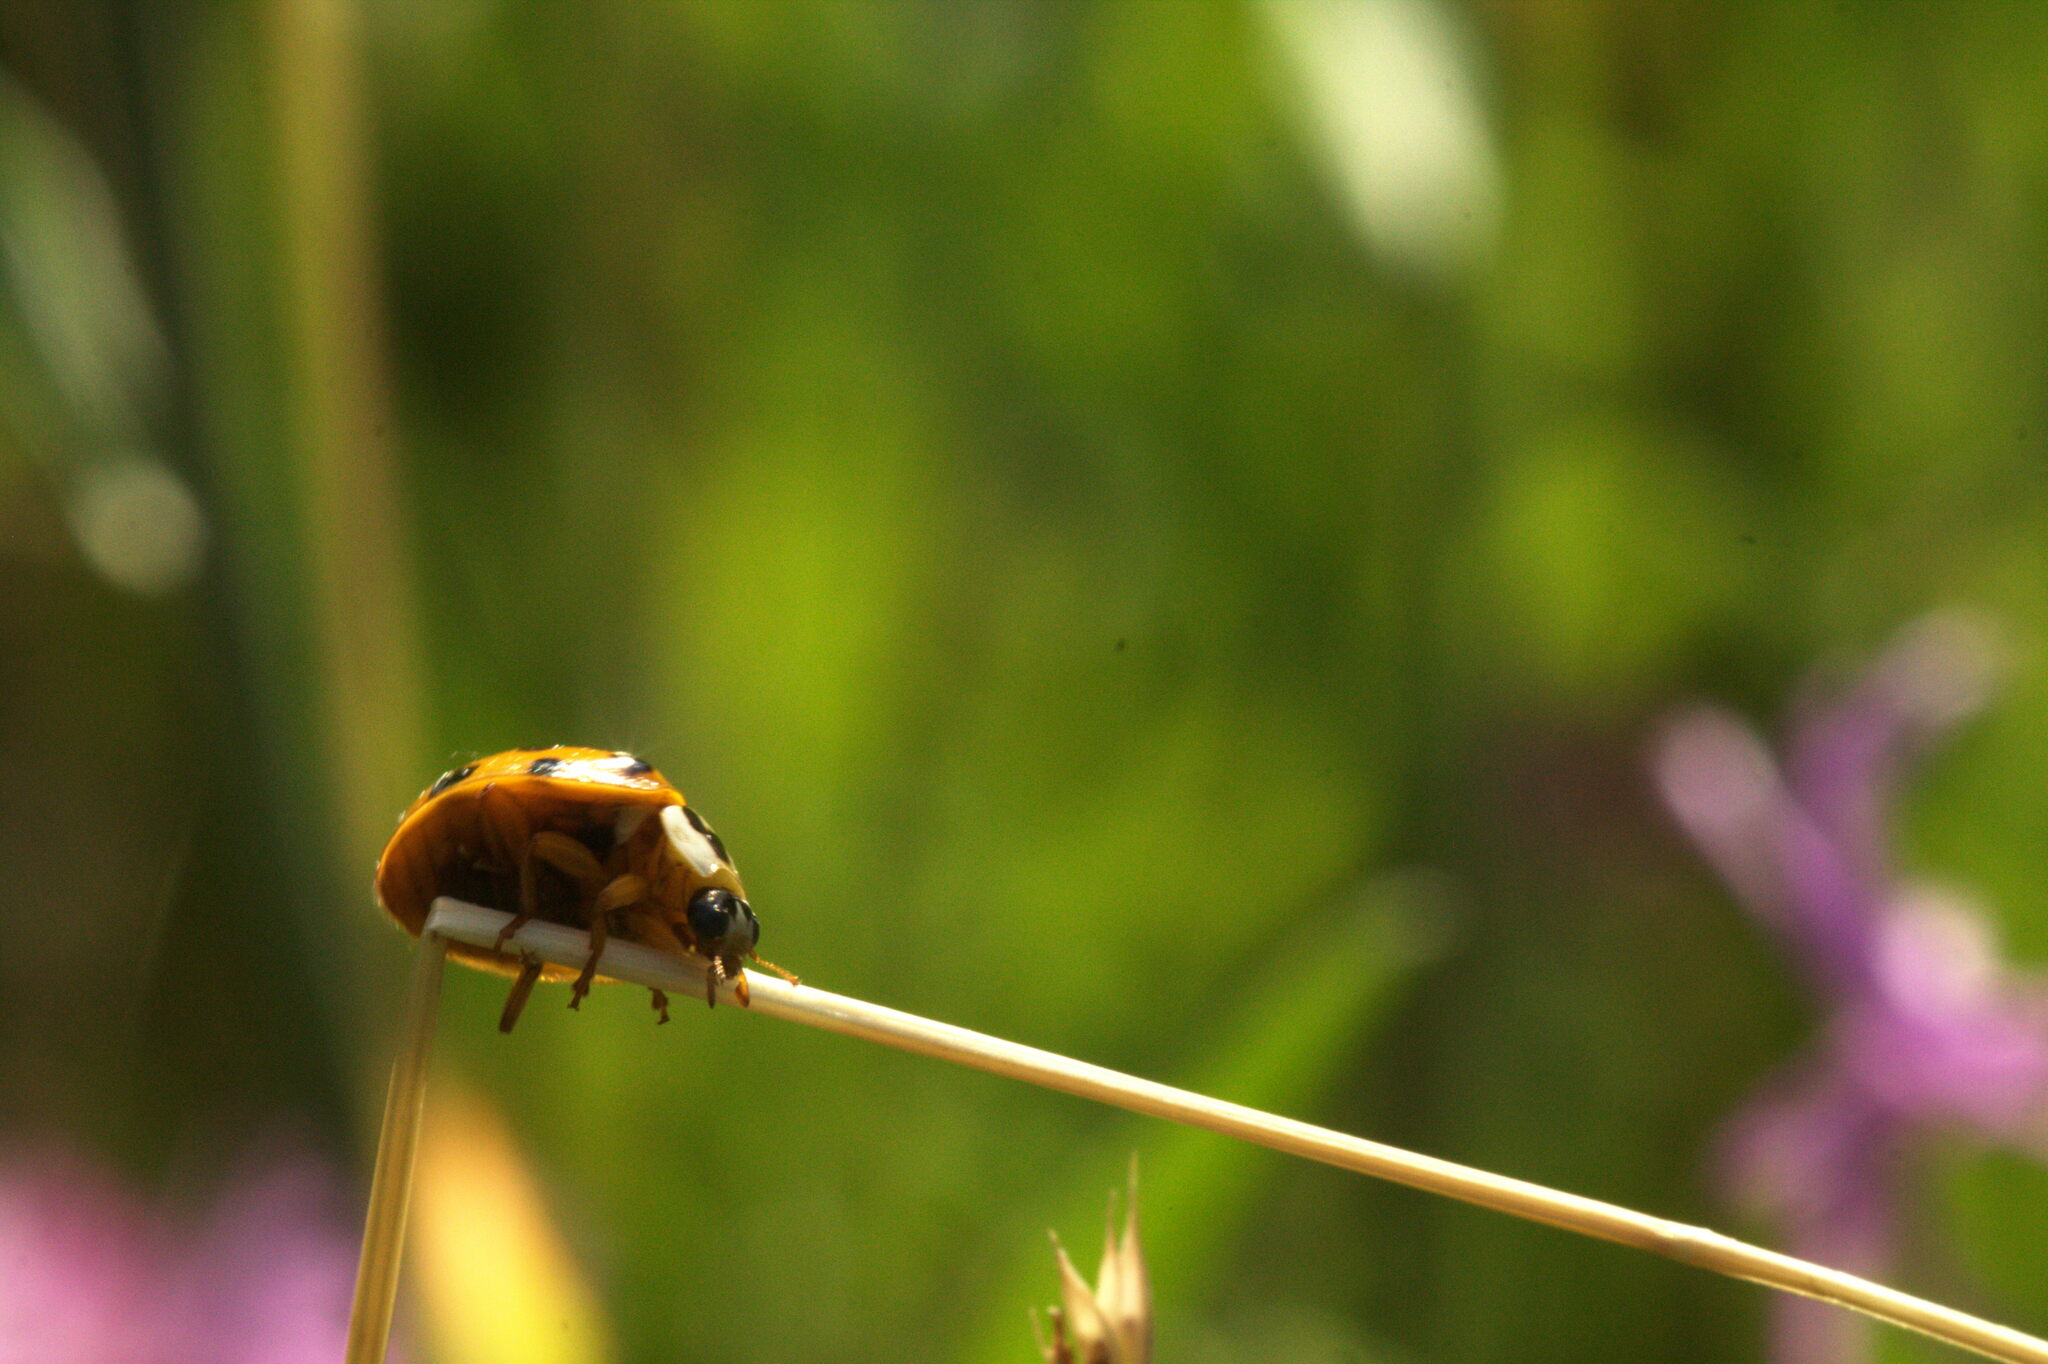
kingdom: Animalia
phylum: Arthropoda
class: Insecta
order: Coleoptera
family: Coccinellidae
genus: Harmonia
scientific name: Harmonia axyridis
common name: Harlequin ladybird
